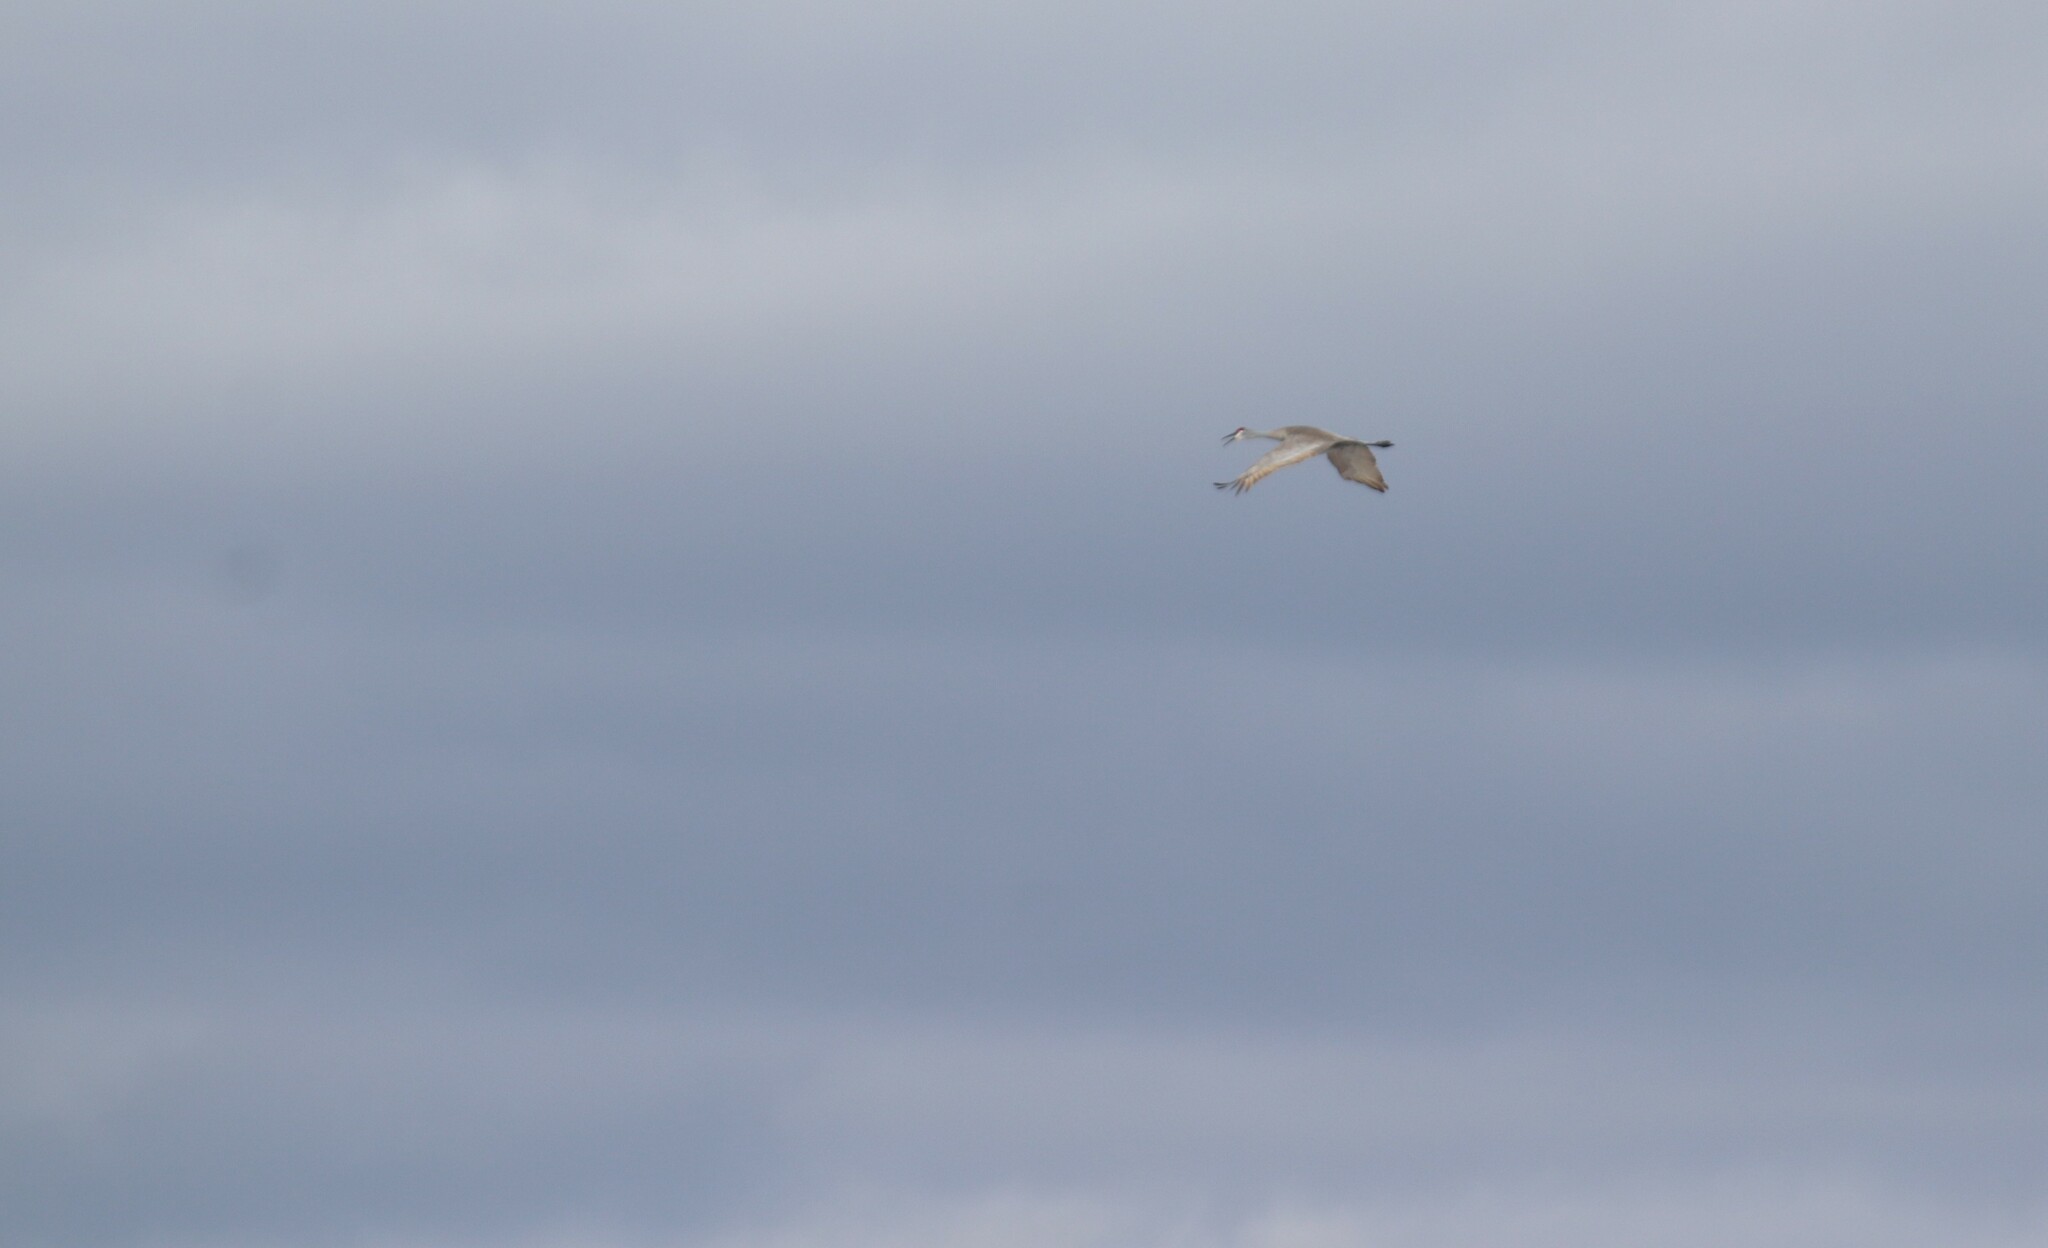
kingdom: Animalia
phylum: Chordata
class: Aves
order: Gruiformes
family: Gruidae
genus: Grus
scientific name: Grus canadensis
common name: Sandhill crane
